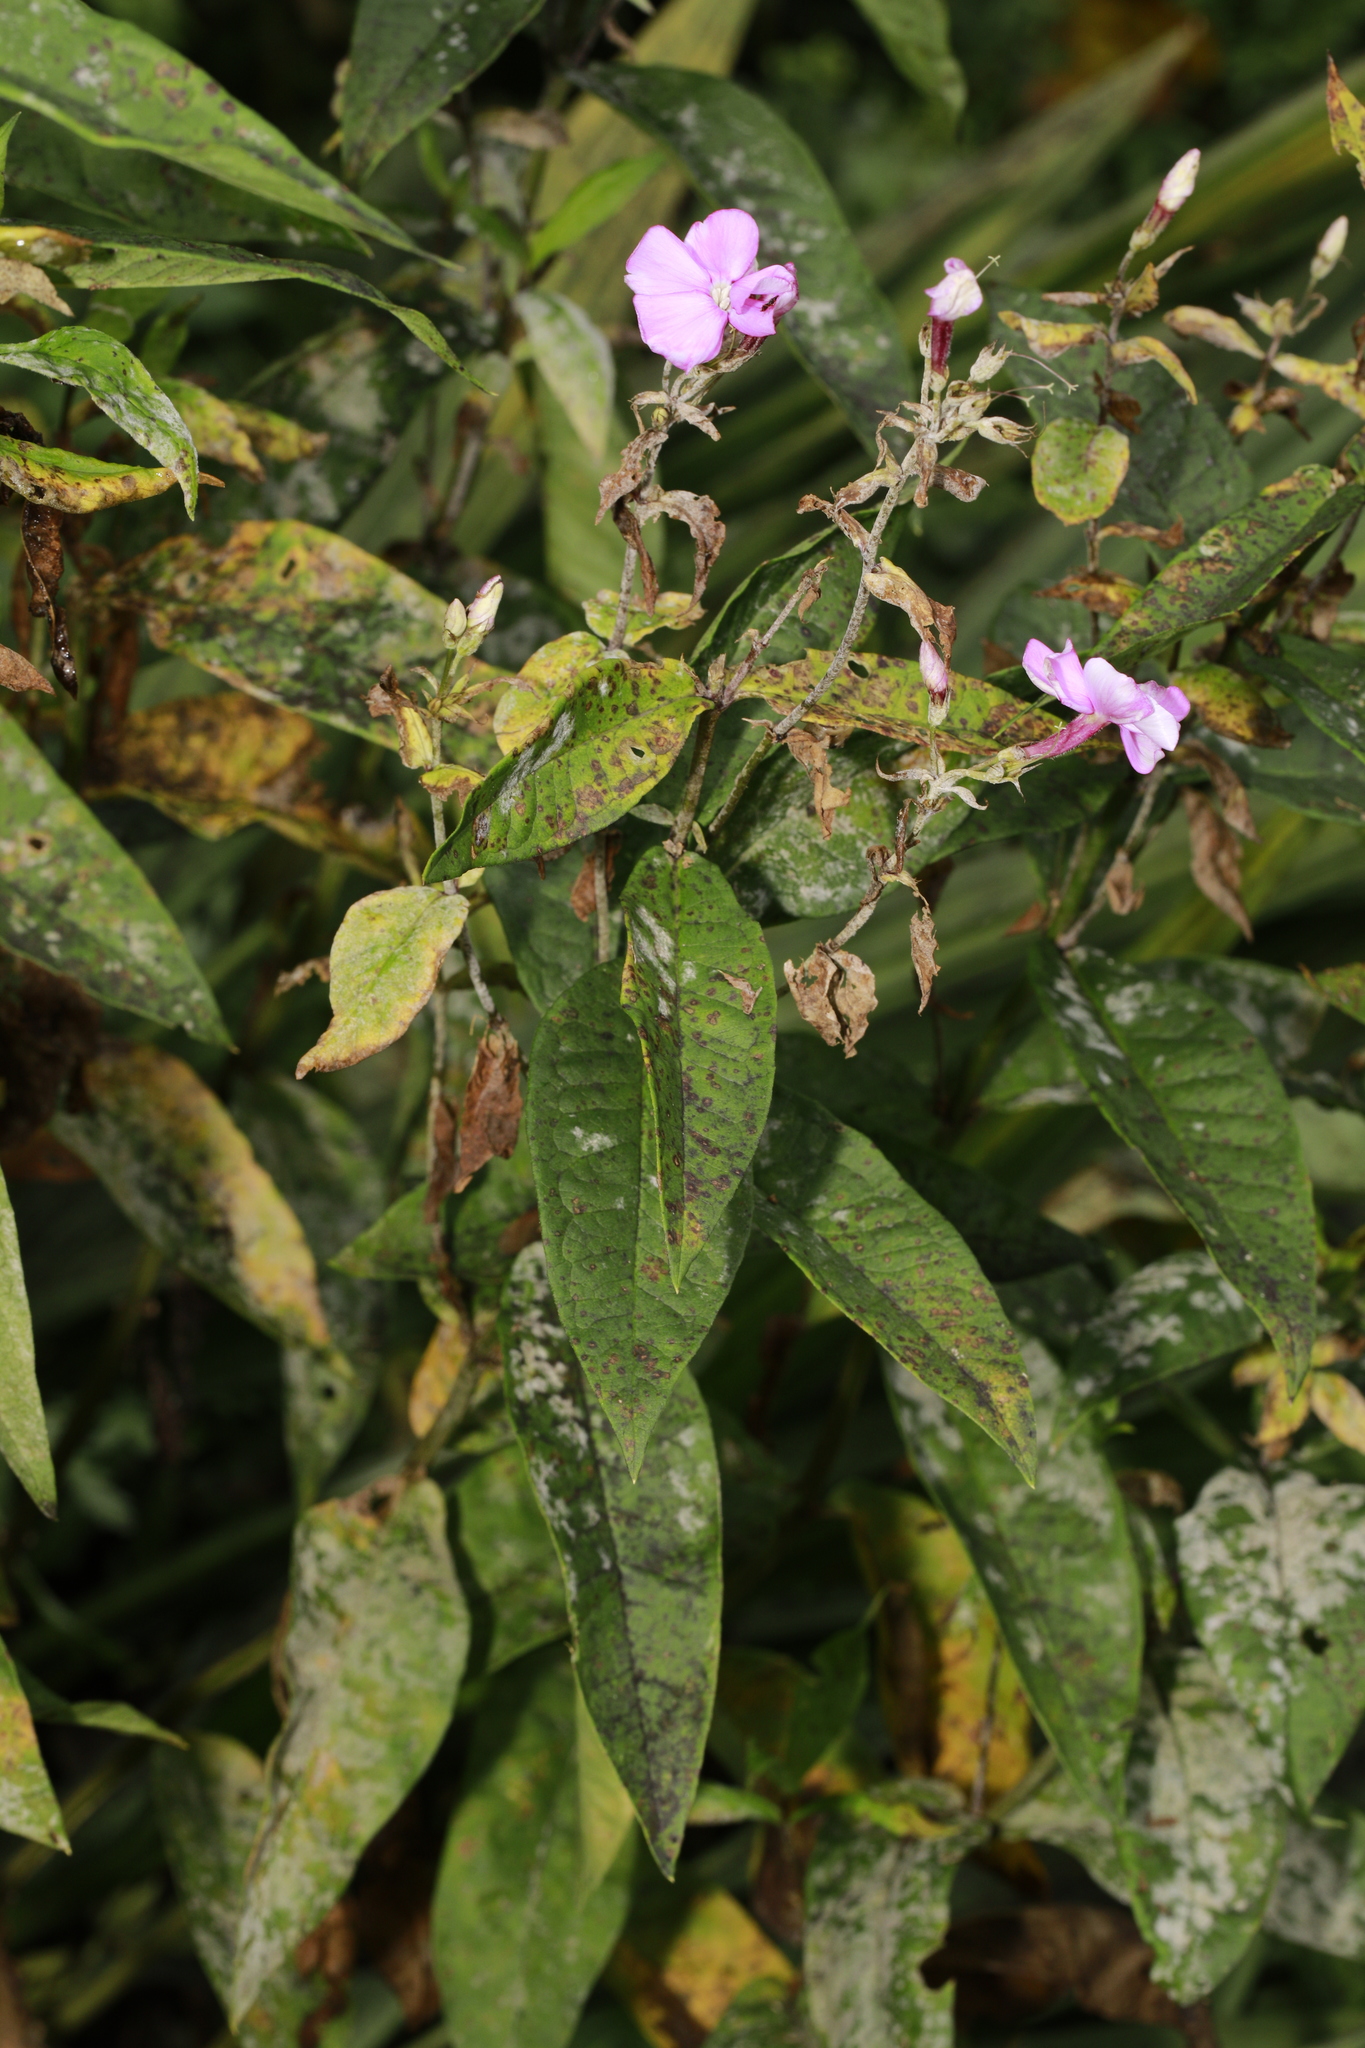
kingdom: Plantae
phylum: Tracheophyta
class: Magnoliopsida
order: Ericales
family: Polemoniaceae
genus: Phlox
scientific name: Phlox paniculata
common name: Fall phlox
